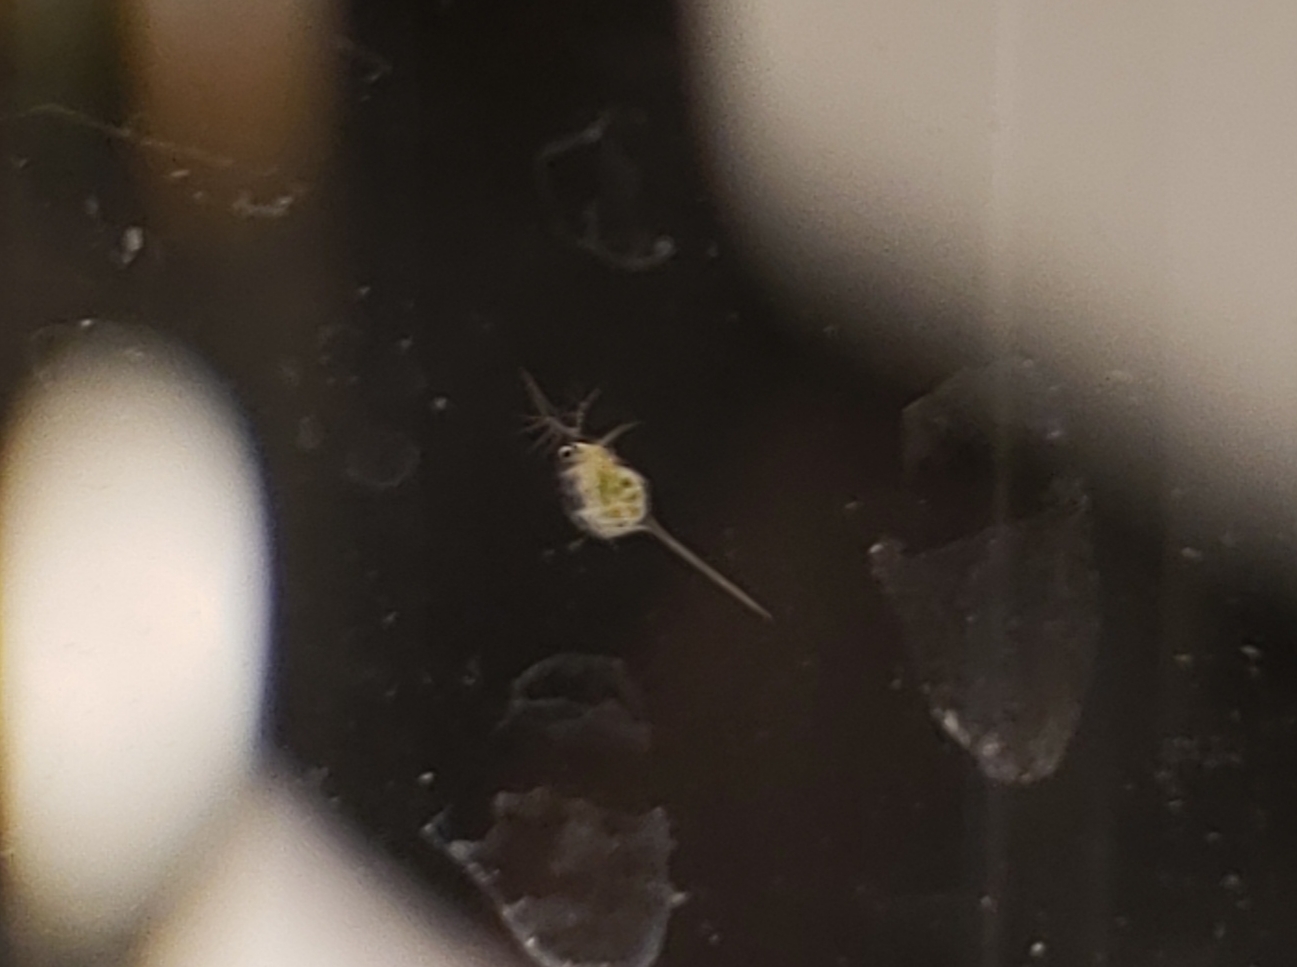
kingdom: Animalia
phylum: Arthropoda
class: Branchiopoda
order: Diplostraca
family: Daphniidae
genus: Daphnia
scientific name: Daphnia lumholtzi
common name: Spiny waterflea
